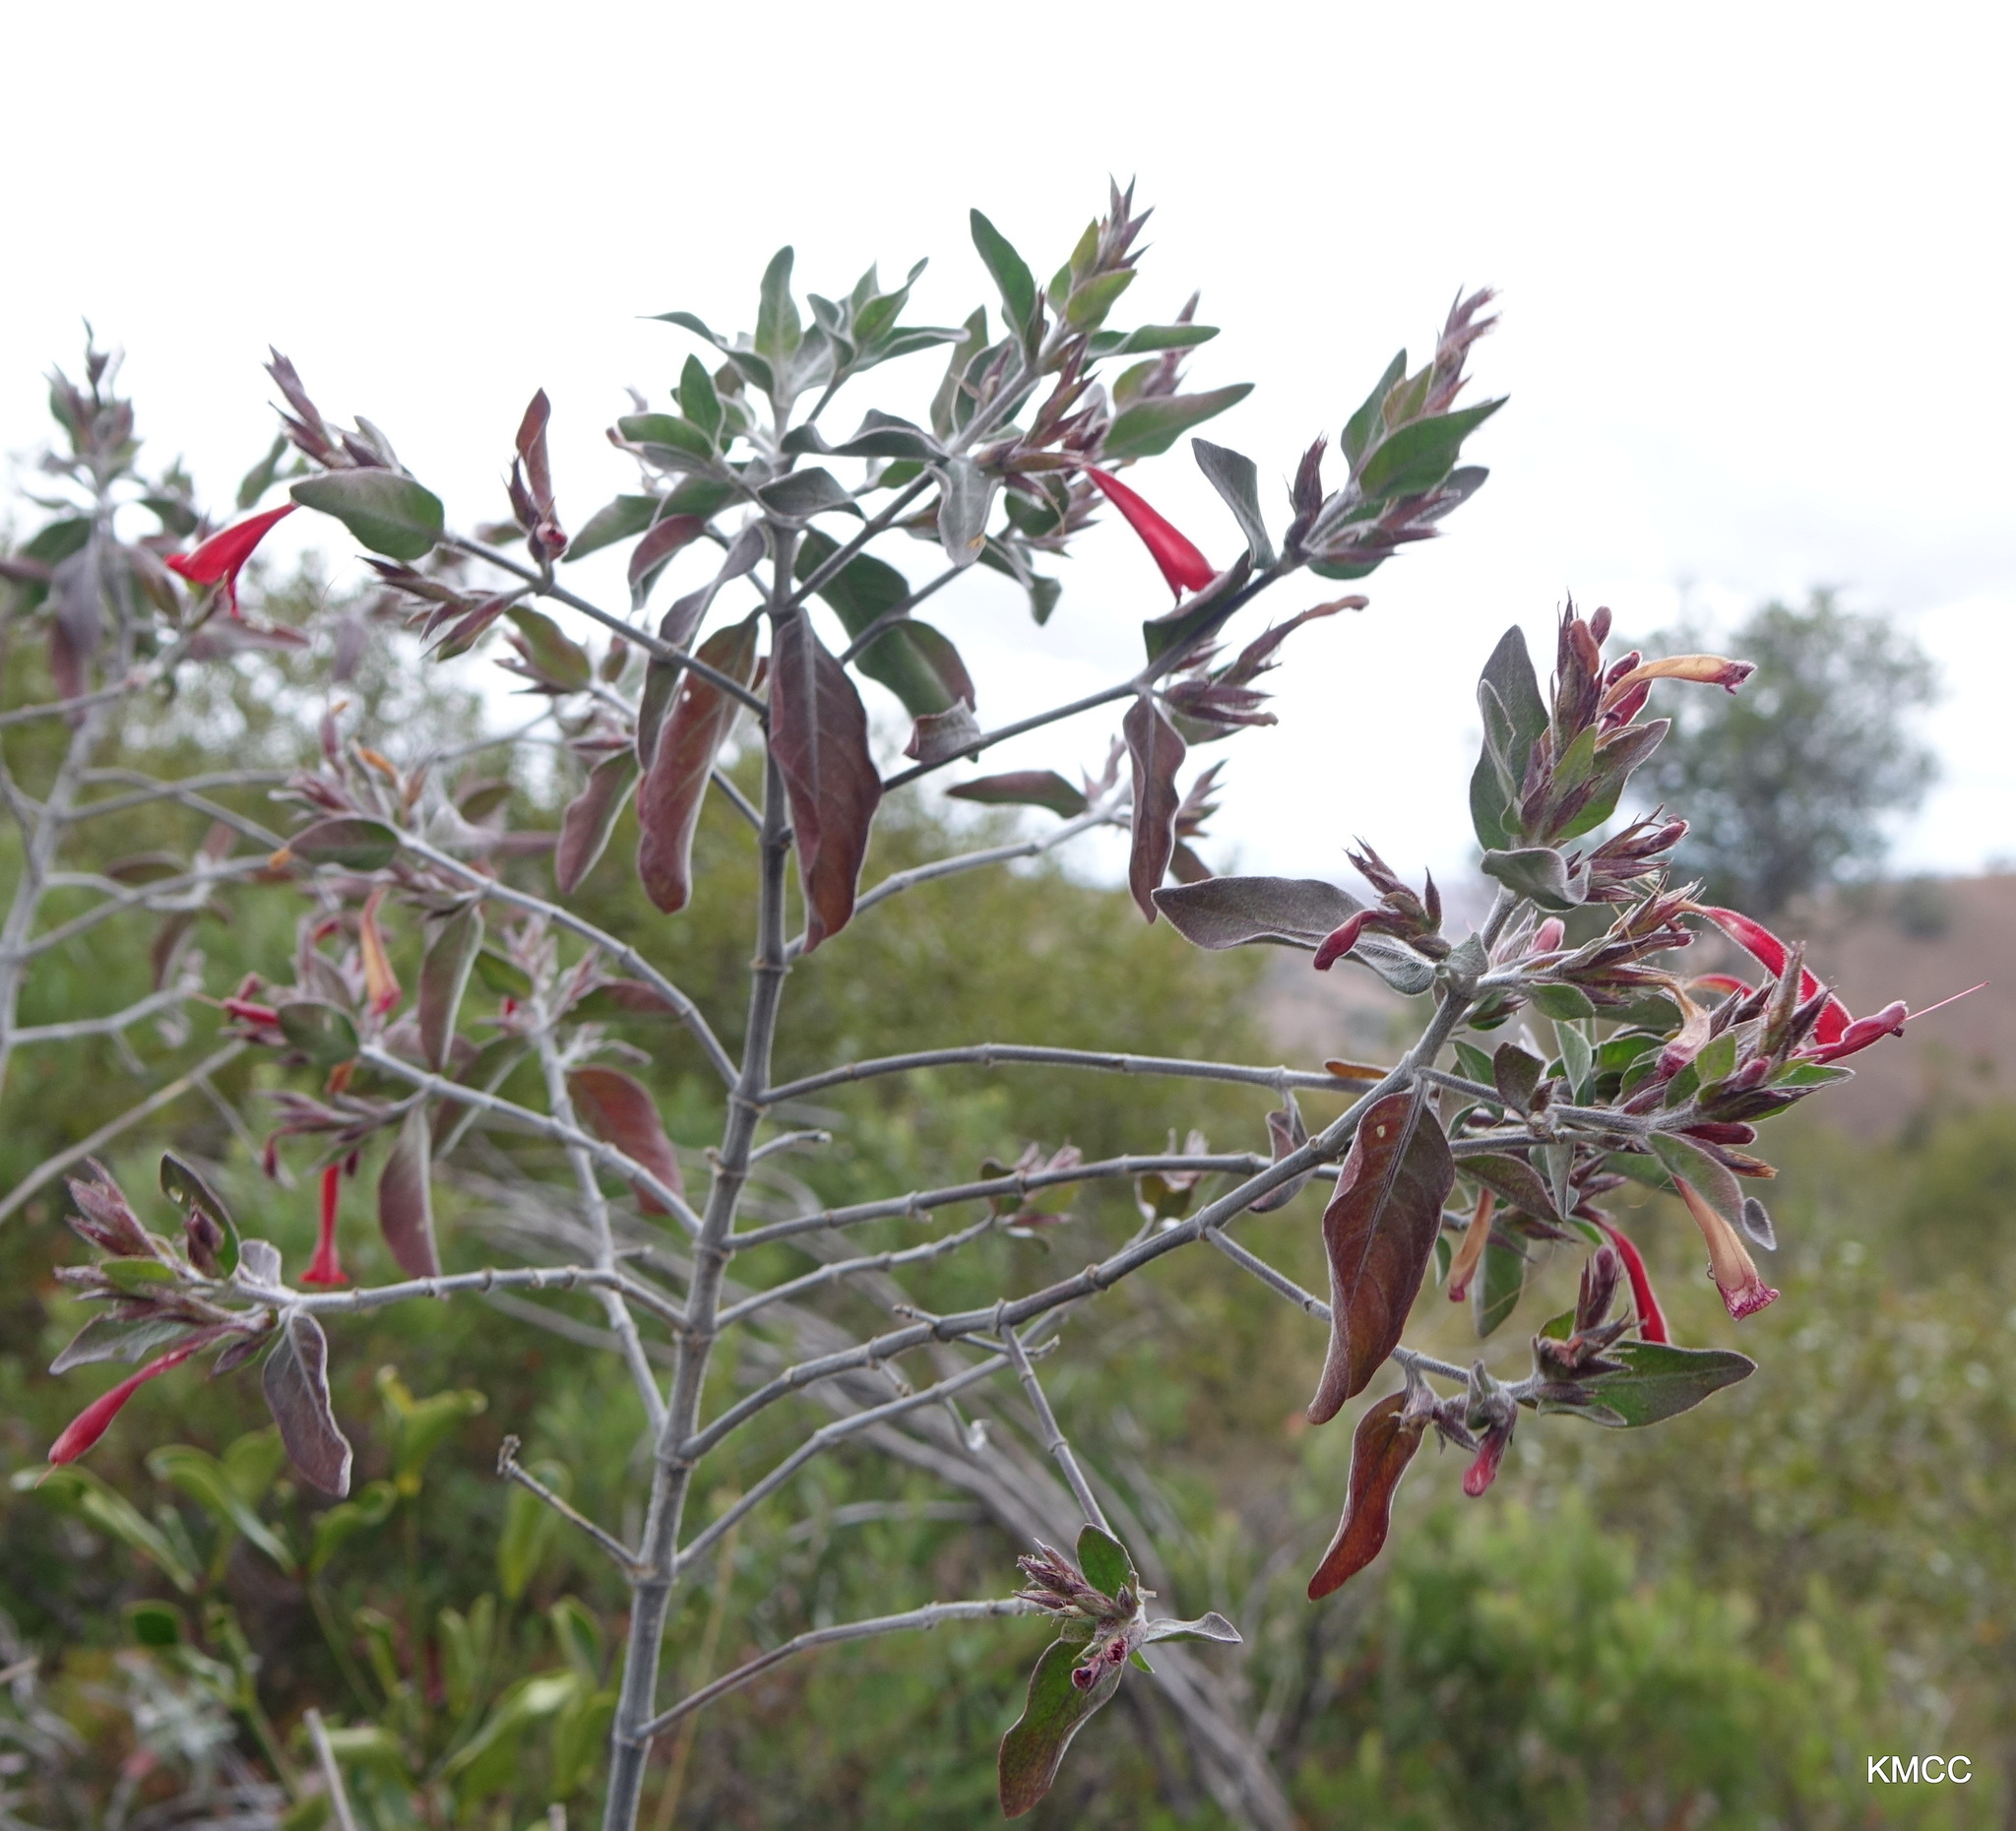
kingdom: Plantae
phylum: Tracheophyta
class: Magnoliopsida
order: Lamiales
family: Acanthaceae
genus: Hypoestes
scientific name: Hypoestes isalensis
